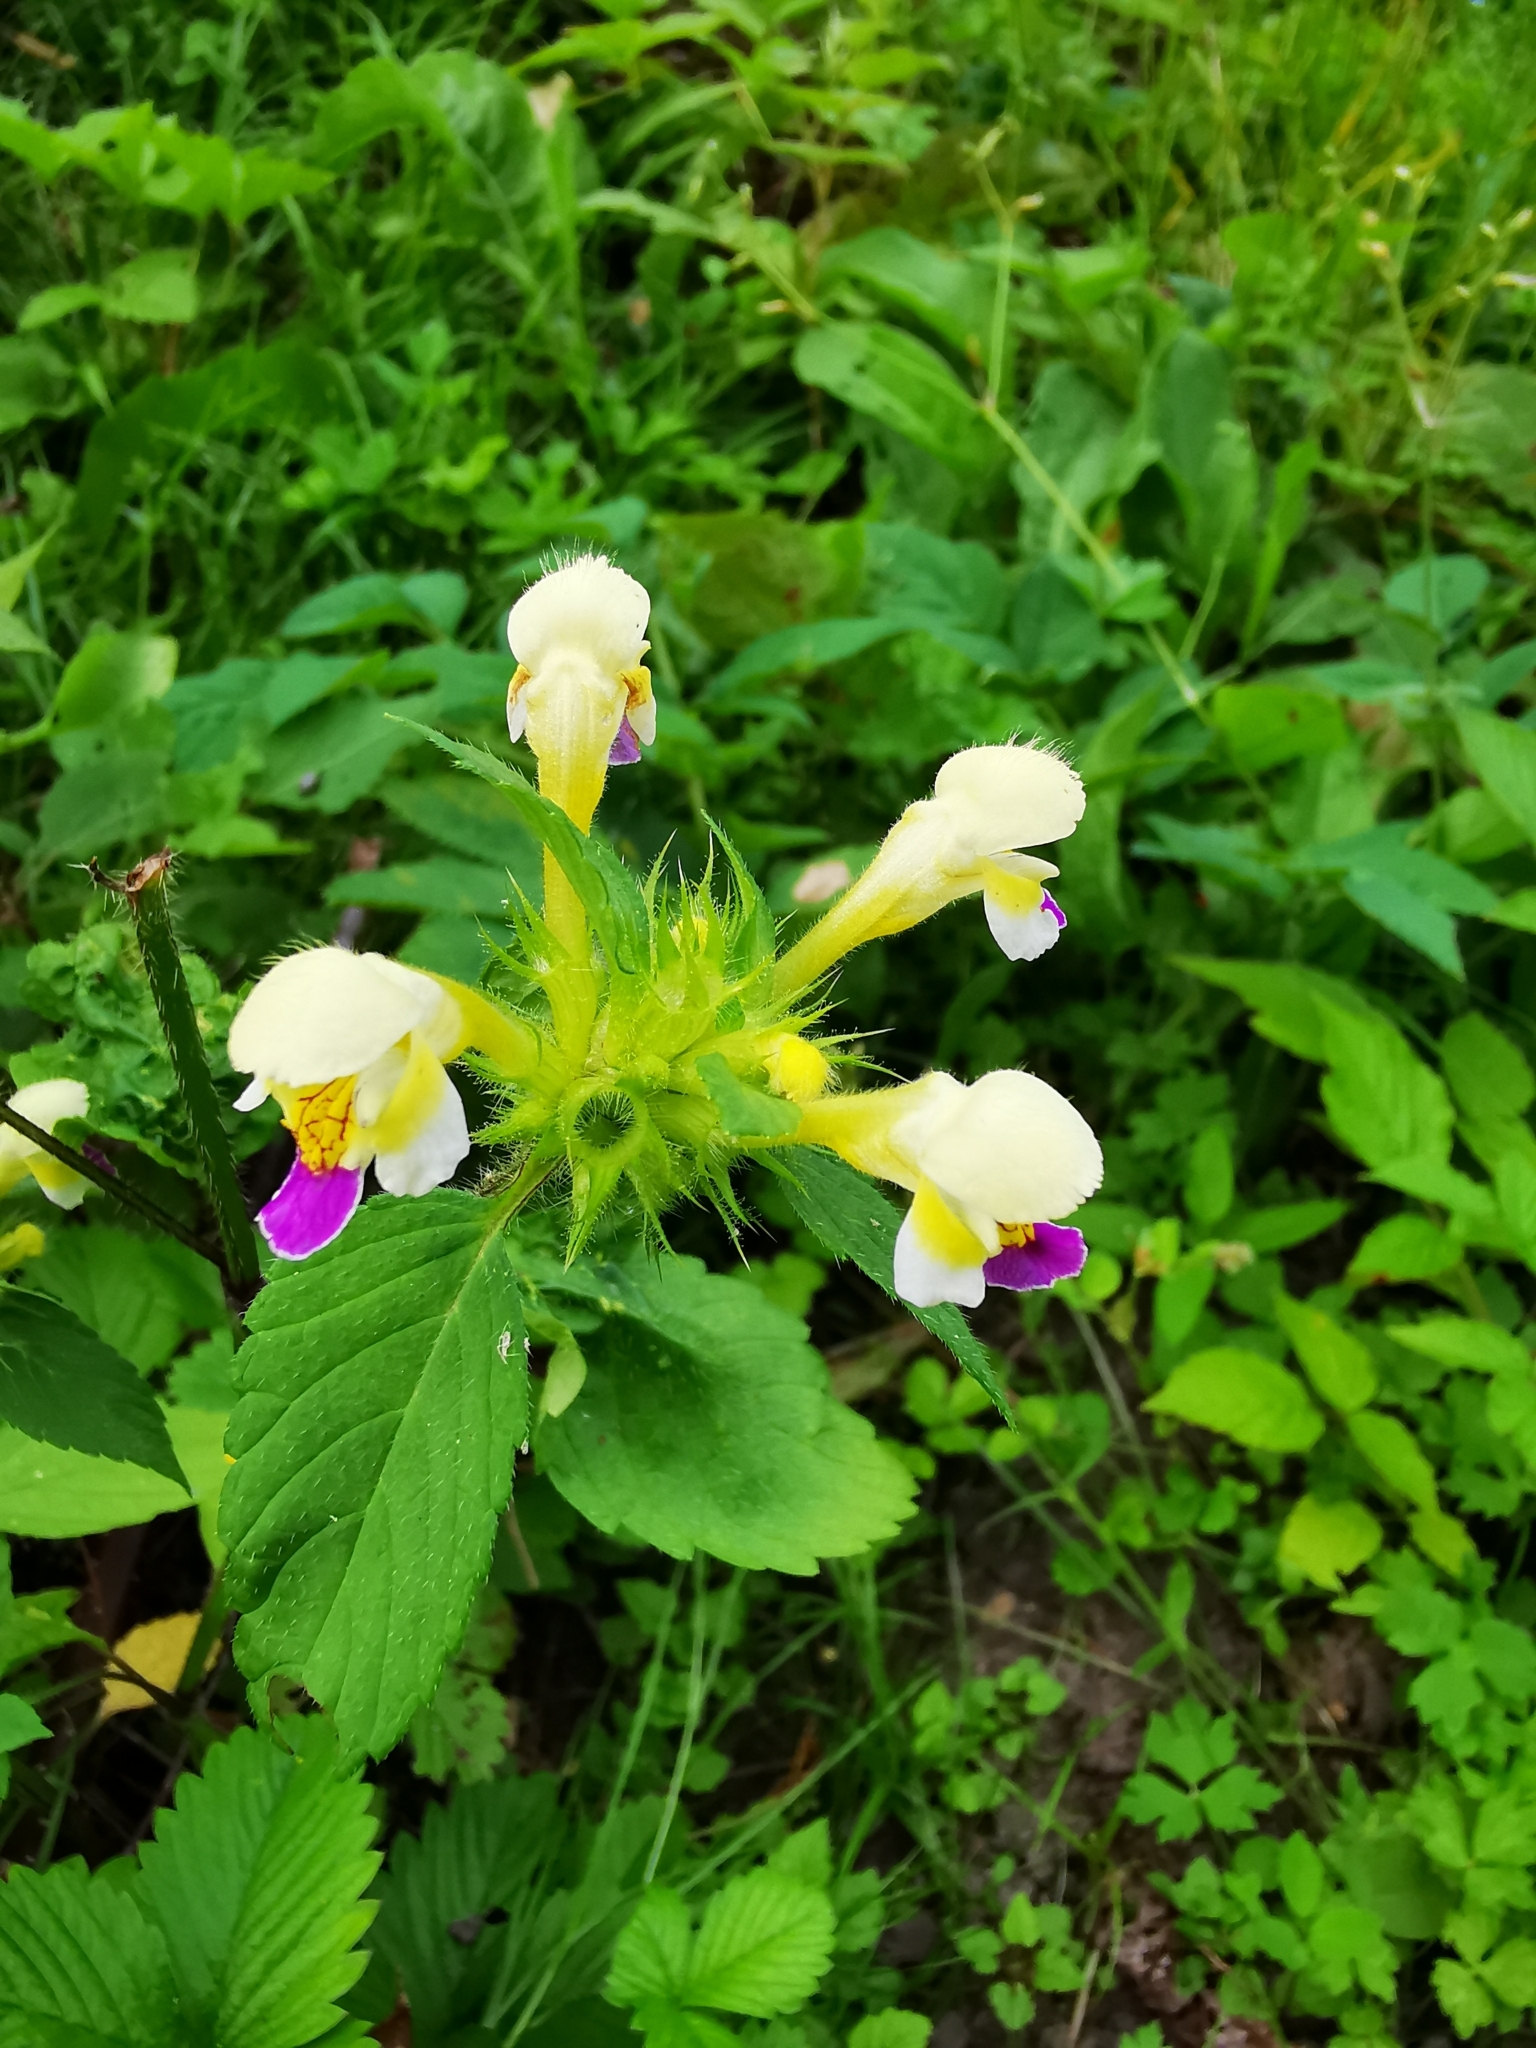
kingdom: Plantae
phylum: Tracheophyta
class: Magnoliopsida
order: Lamiales
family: Lamiaceae
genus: Galeopsis
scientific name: Galeopsis speciosa
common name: Large-flowered hemp-nettle
